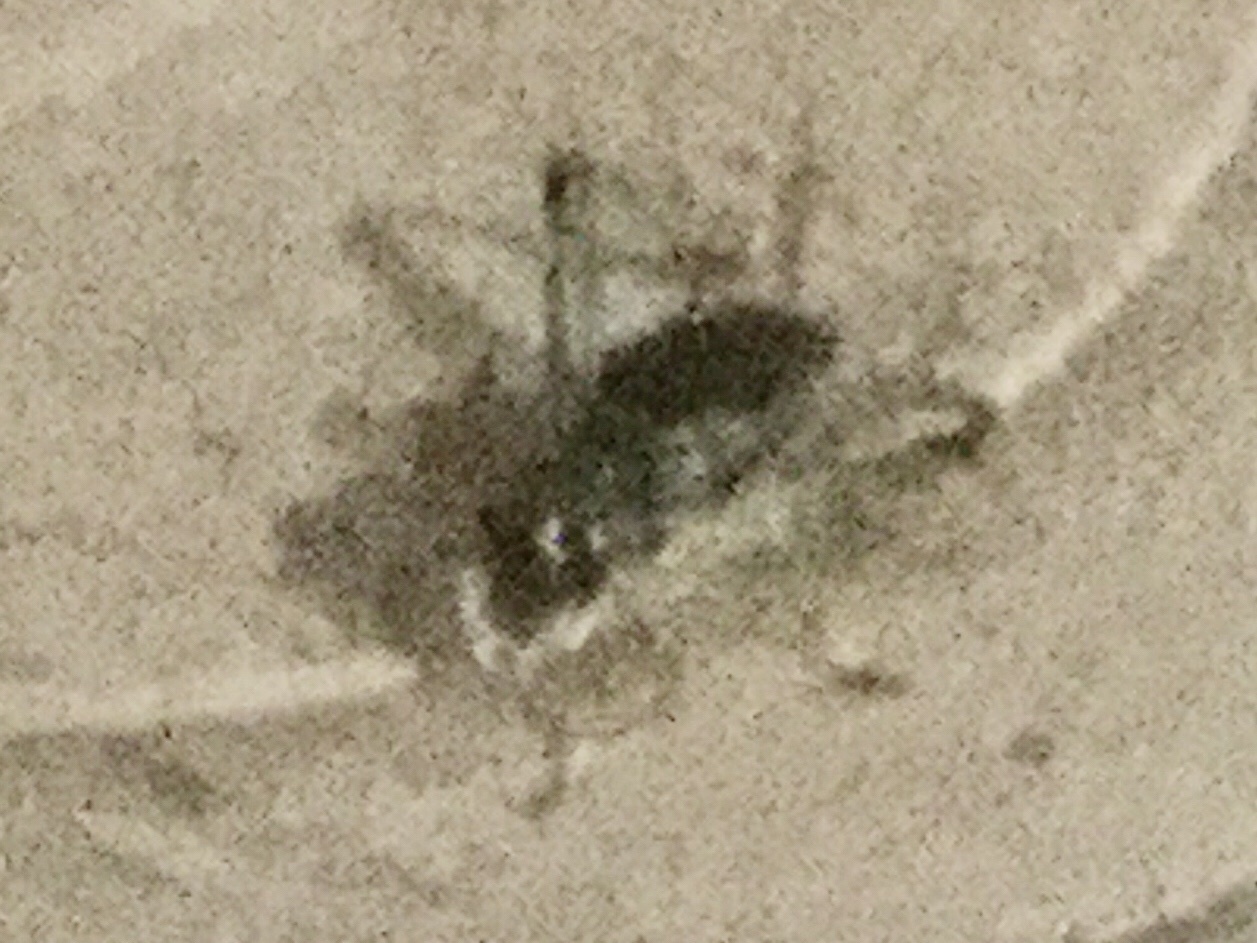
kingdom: Animalia
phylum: Arthropoda
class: Insecta
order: Orthoptera
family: Trigonidiidae
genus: Phyllopalpus
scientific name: Phyllopalpus pulchellus
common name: Handsome trig
